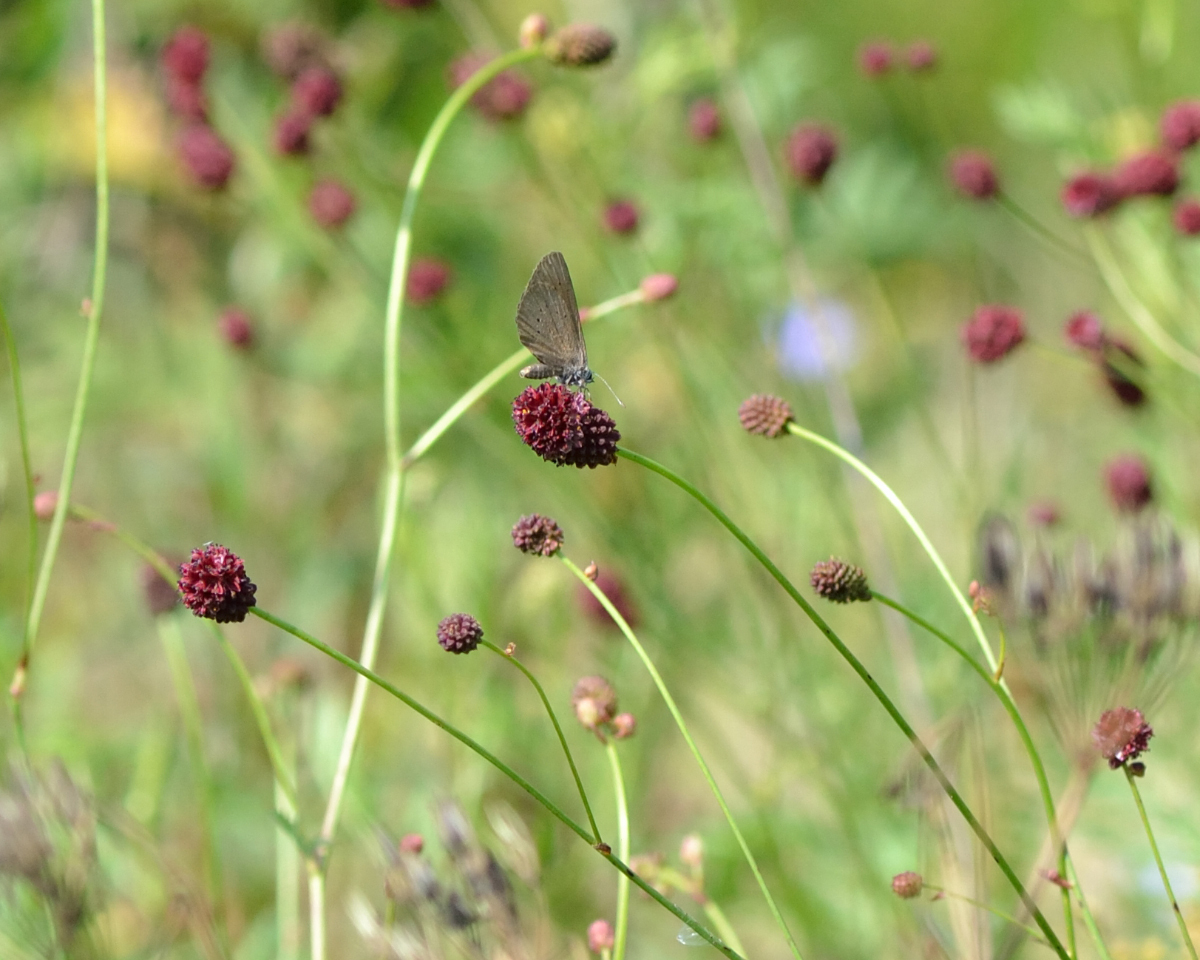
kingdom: Animalia
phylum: Arthropoda
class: Insecta
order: Lepidoptera
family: Lycaenidae
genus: Maculinea
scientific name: Maculinea nausithous
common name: Dusky large blue
